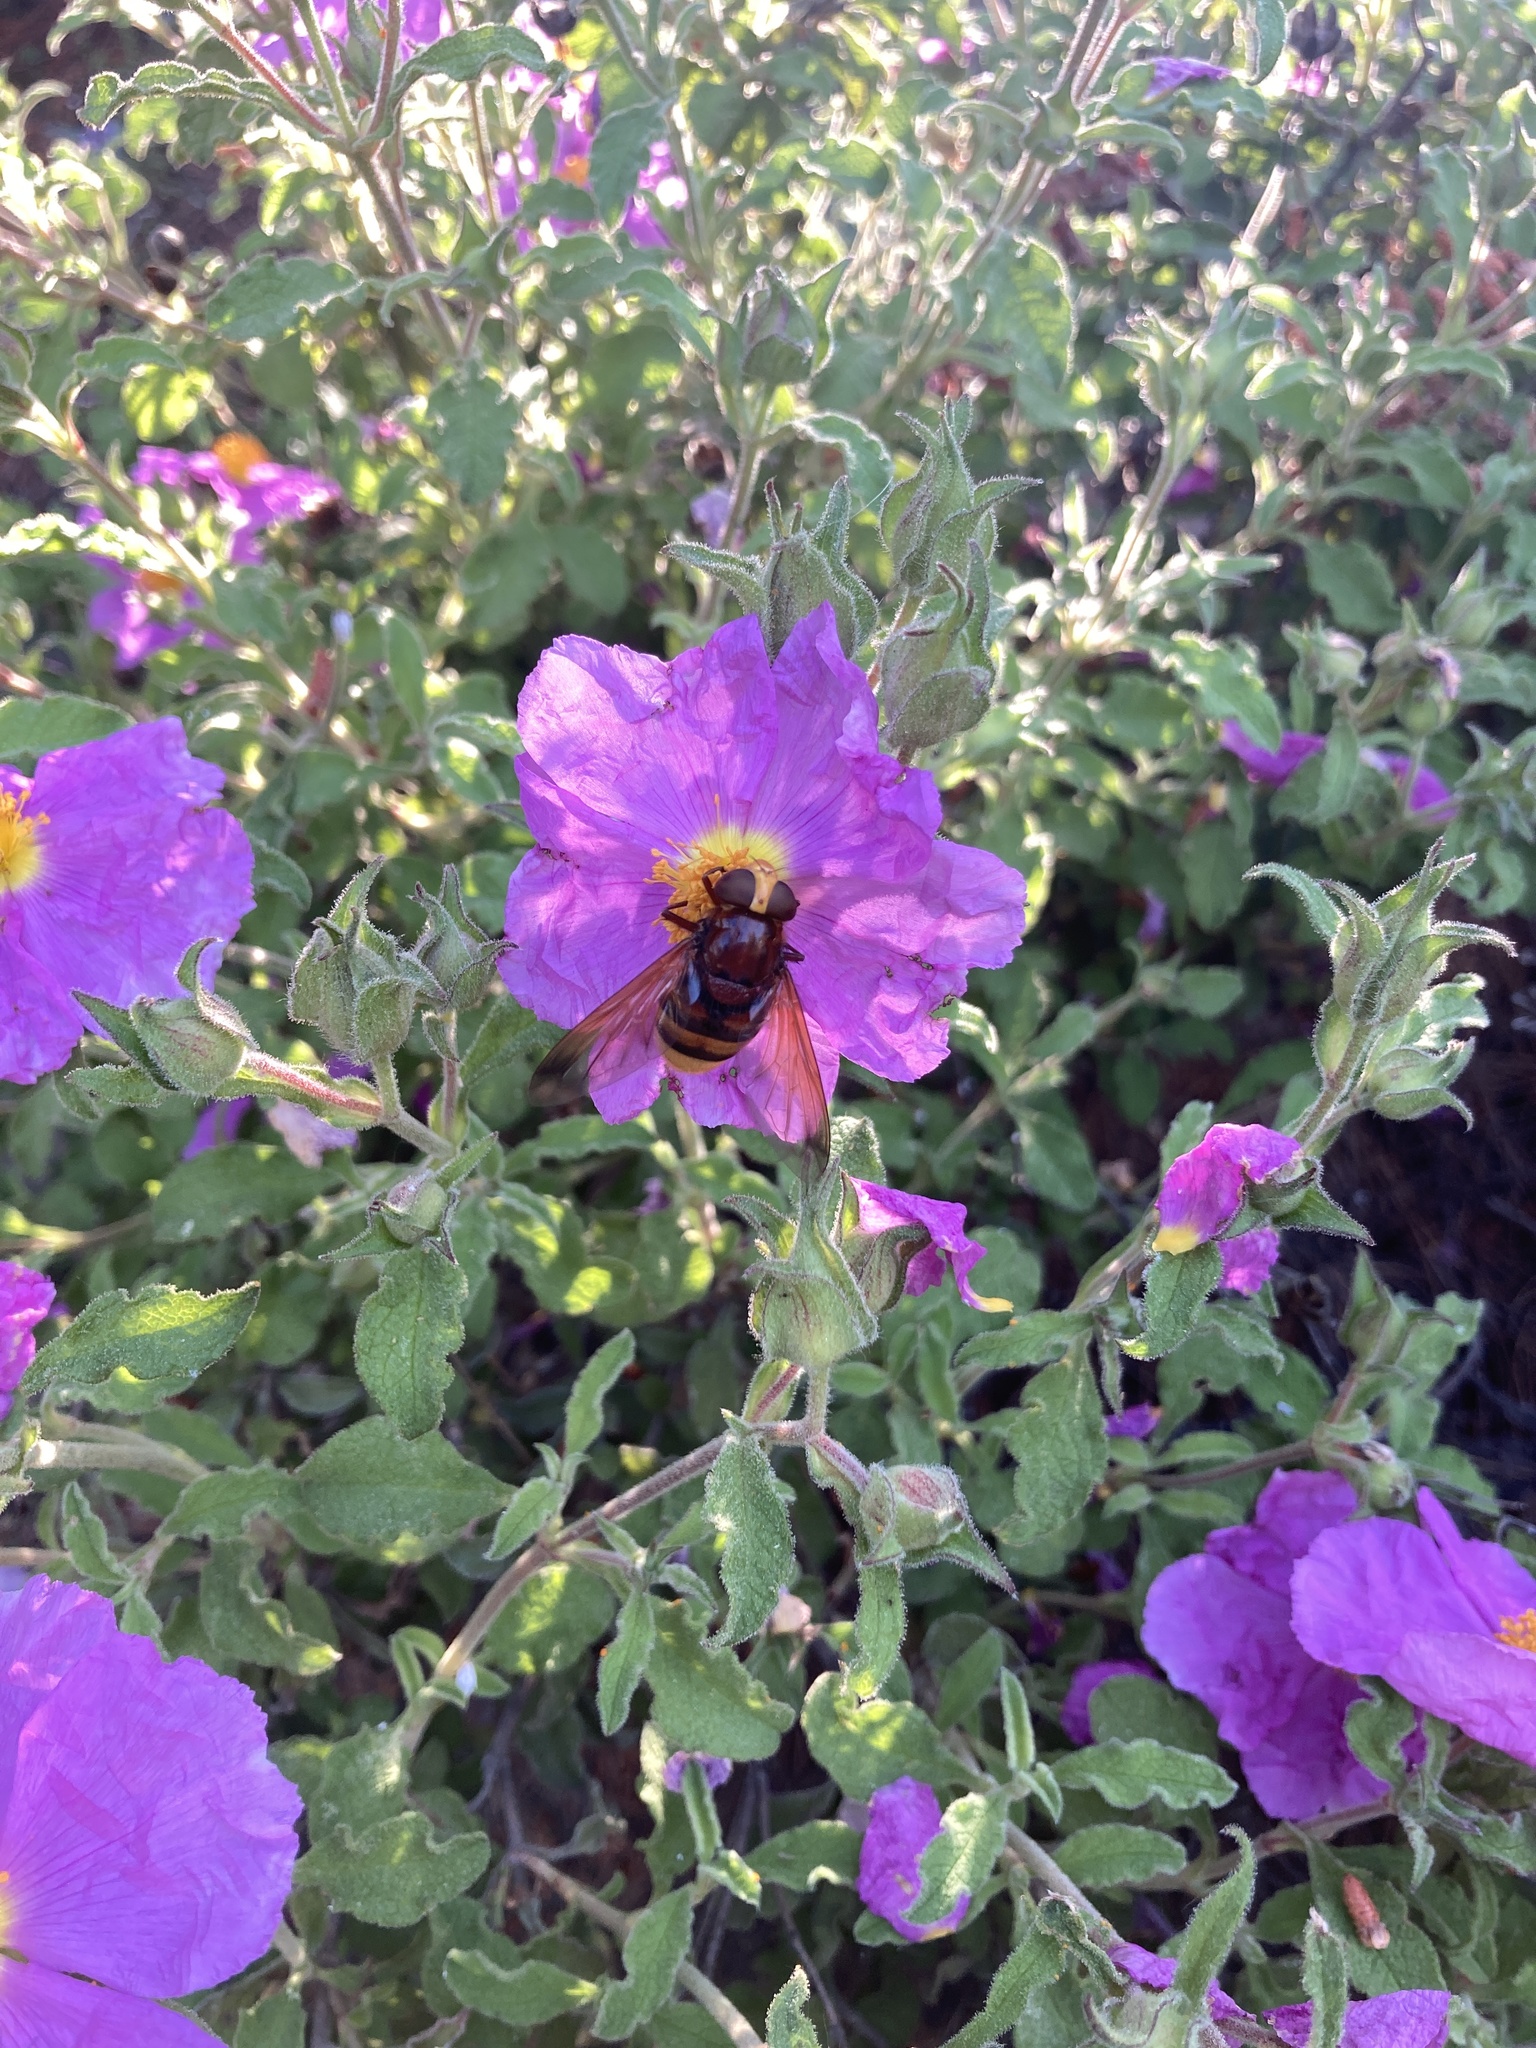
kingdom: Animalia
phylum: Arthropoda
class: Insecta
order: Diptera
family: Syrphidae
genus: Volucella
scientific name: Volucella zonaria
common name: Hornet hoverfly
